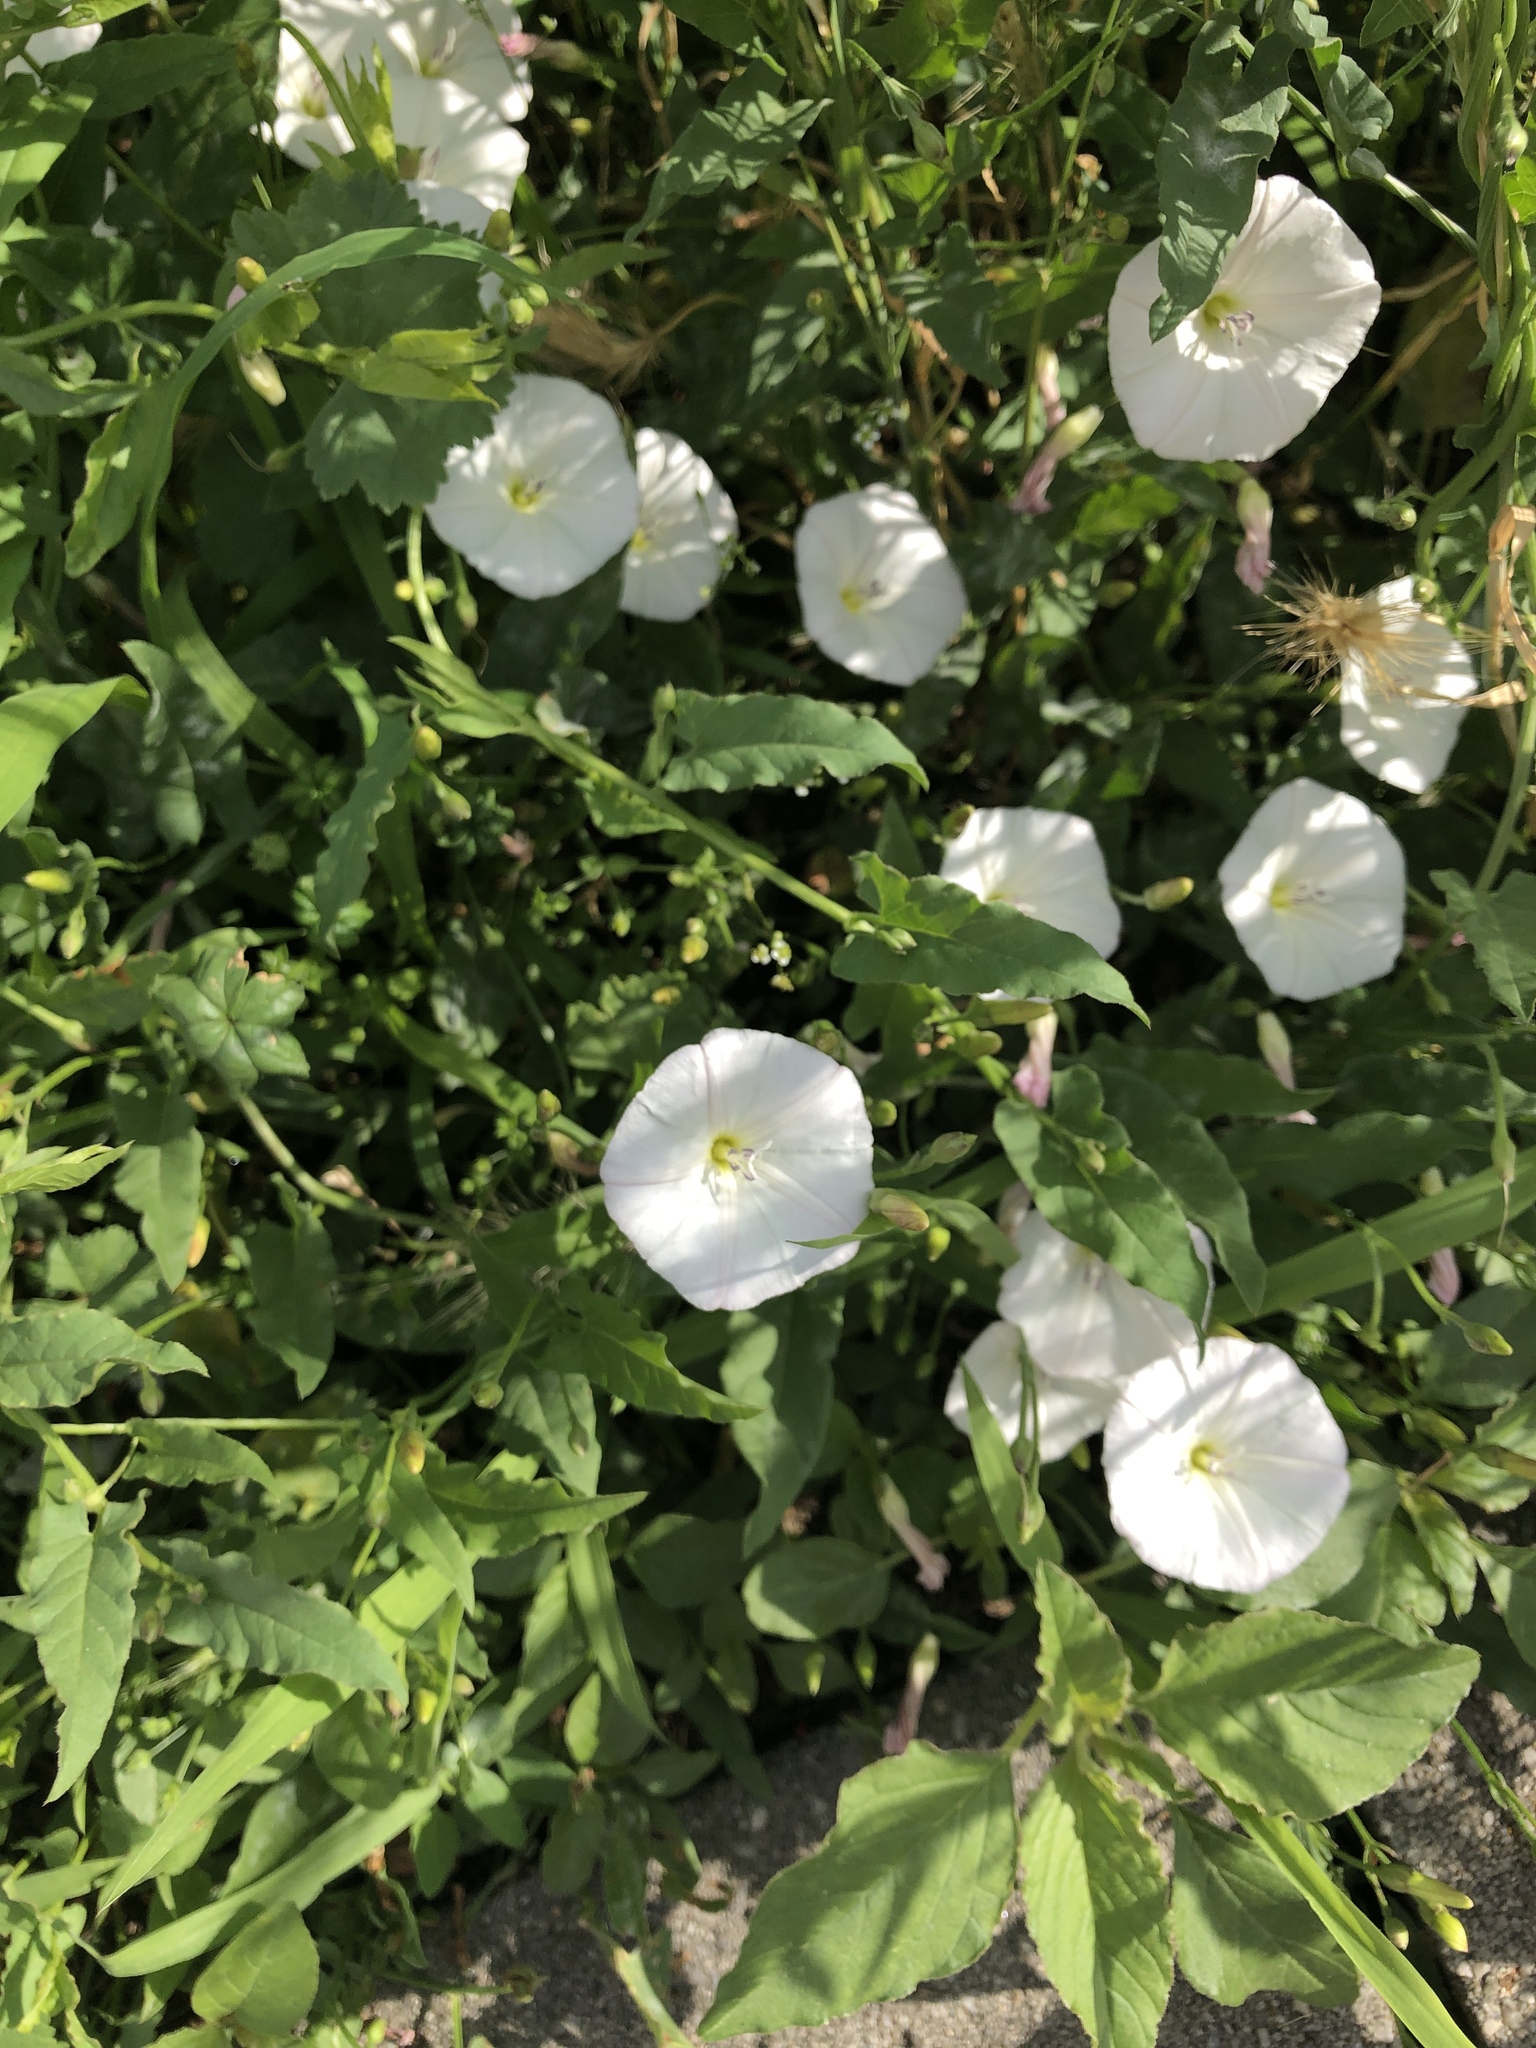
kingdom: Plantae
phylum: Tracheophyta
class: Magnoliopsida
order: Solanales
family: Convolvulaceae
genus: Convolvulus
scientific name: Convolvulus arvensis
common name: Field bindweed
